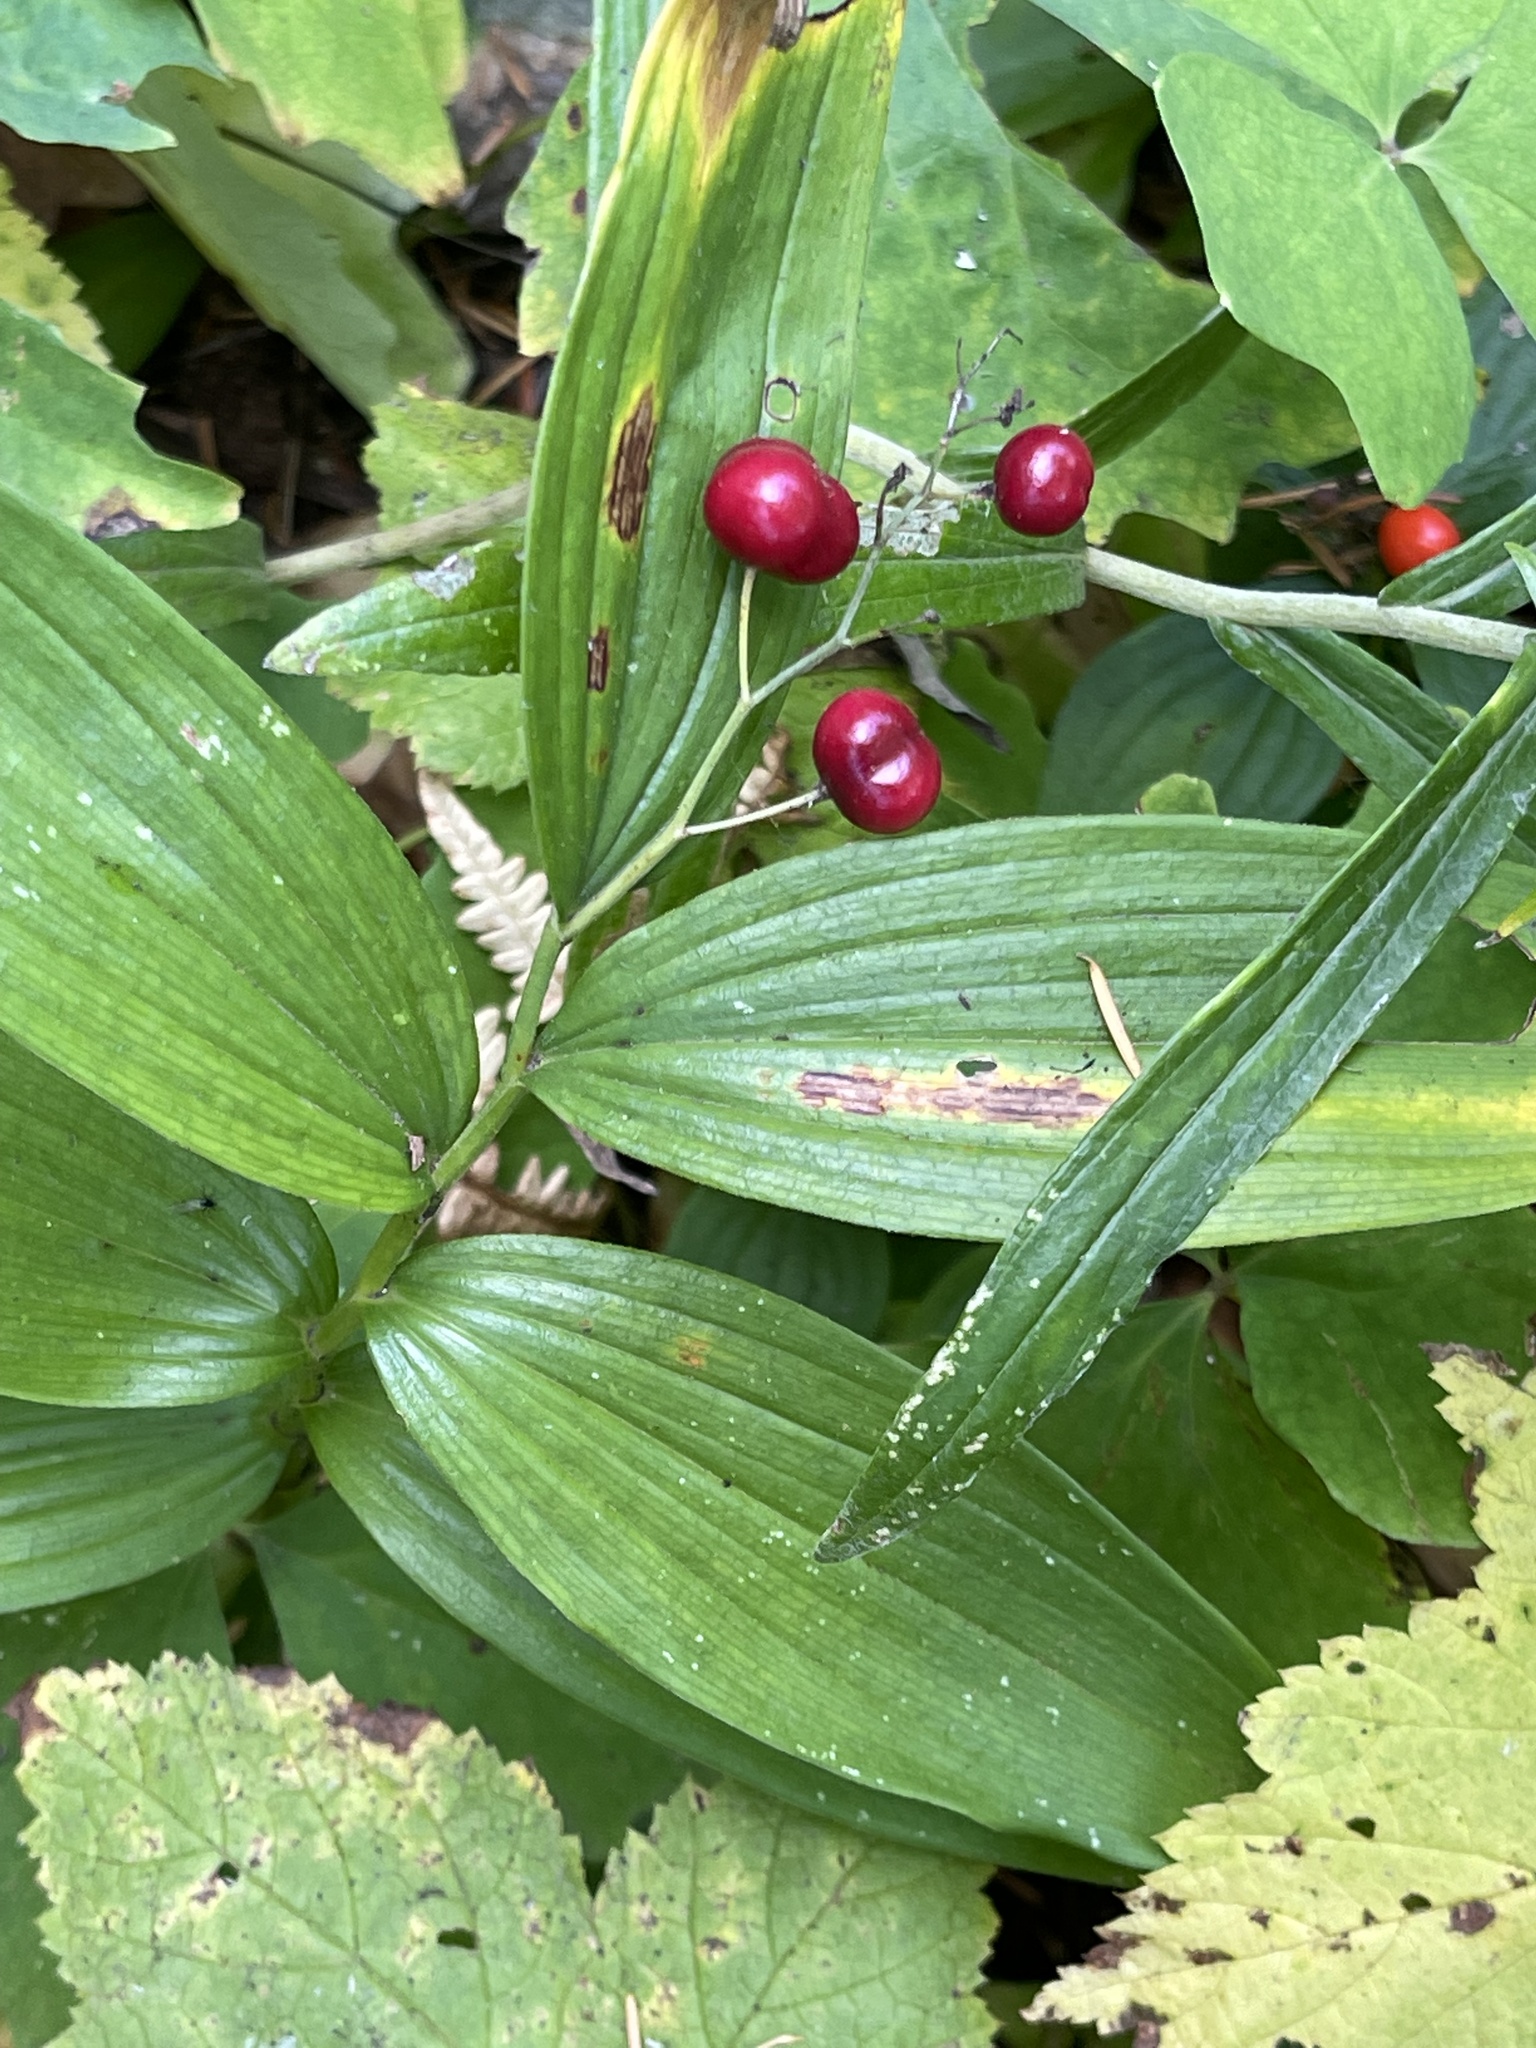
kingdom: Plantae
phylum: Tracheophyta
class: Liliopsida
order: Asparagales
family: Asparagaceae
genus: Maianthemum
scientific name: Maianthemum stellatum
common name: Little false solomon's seal
